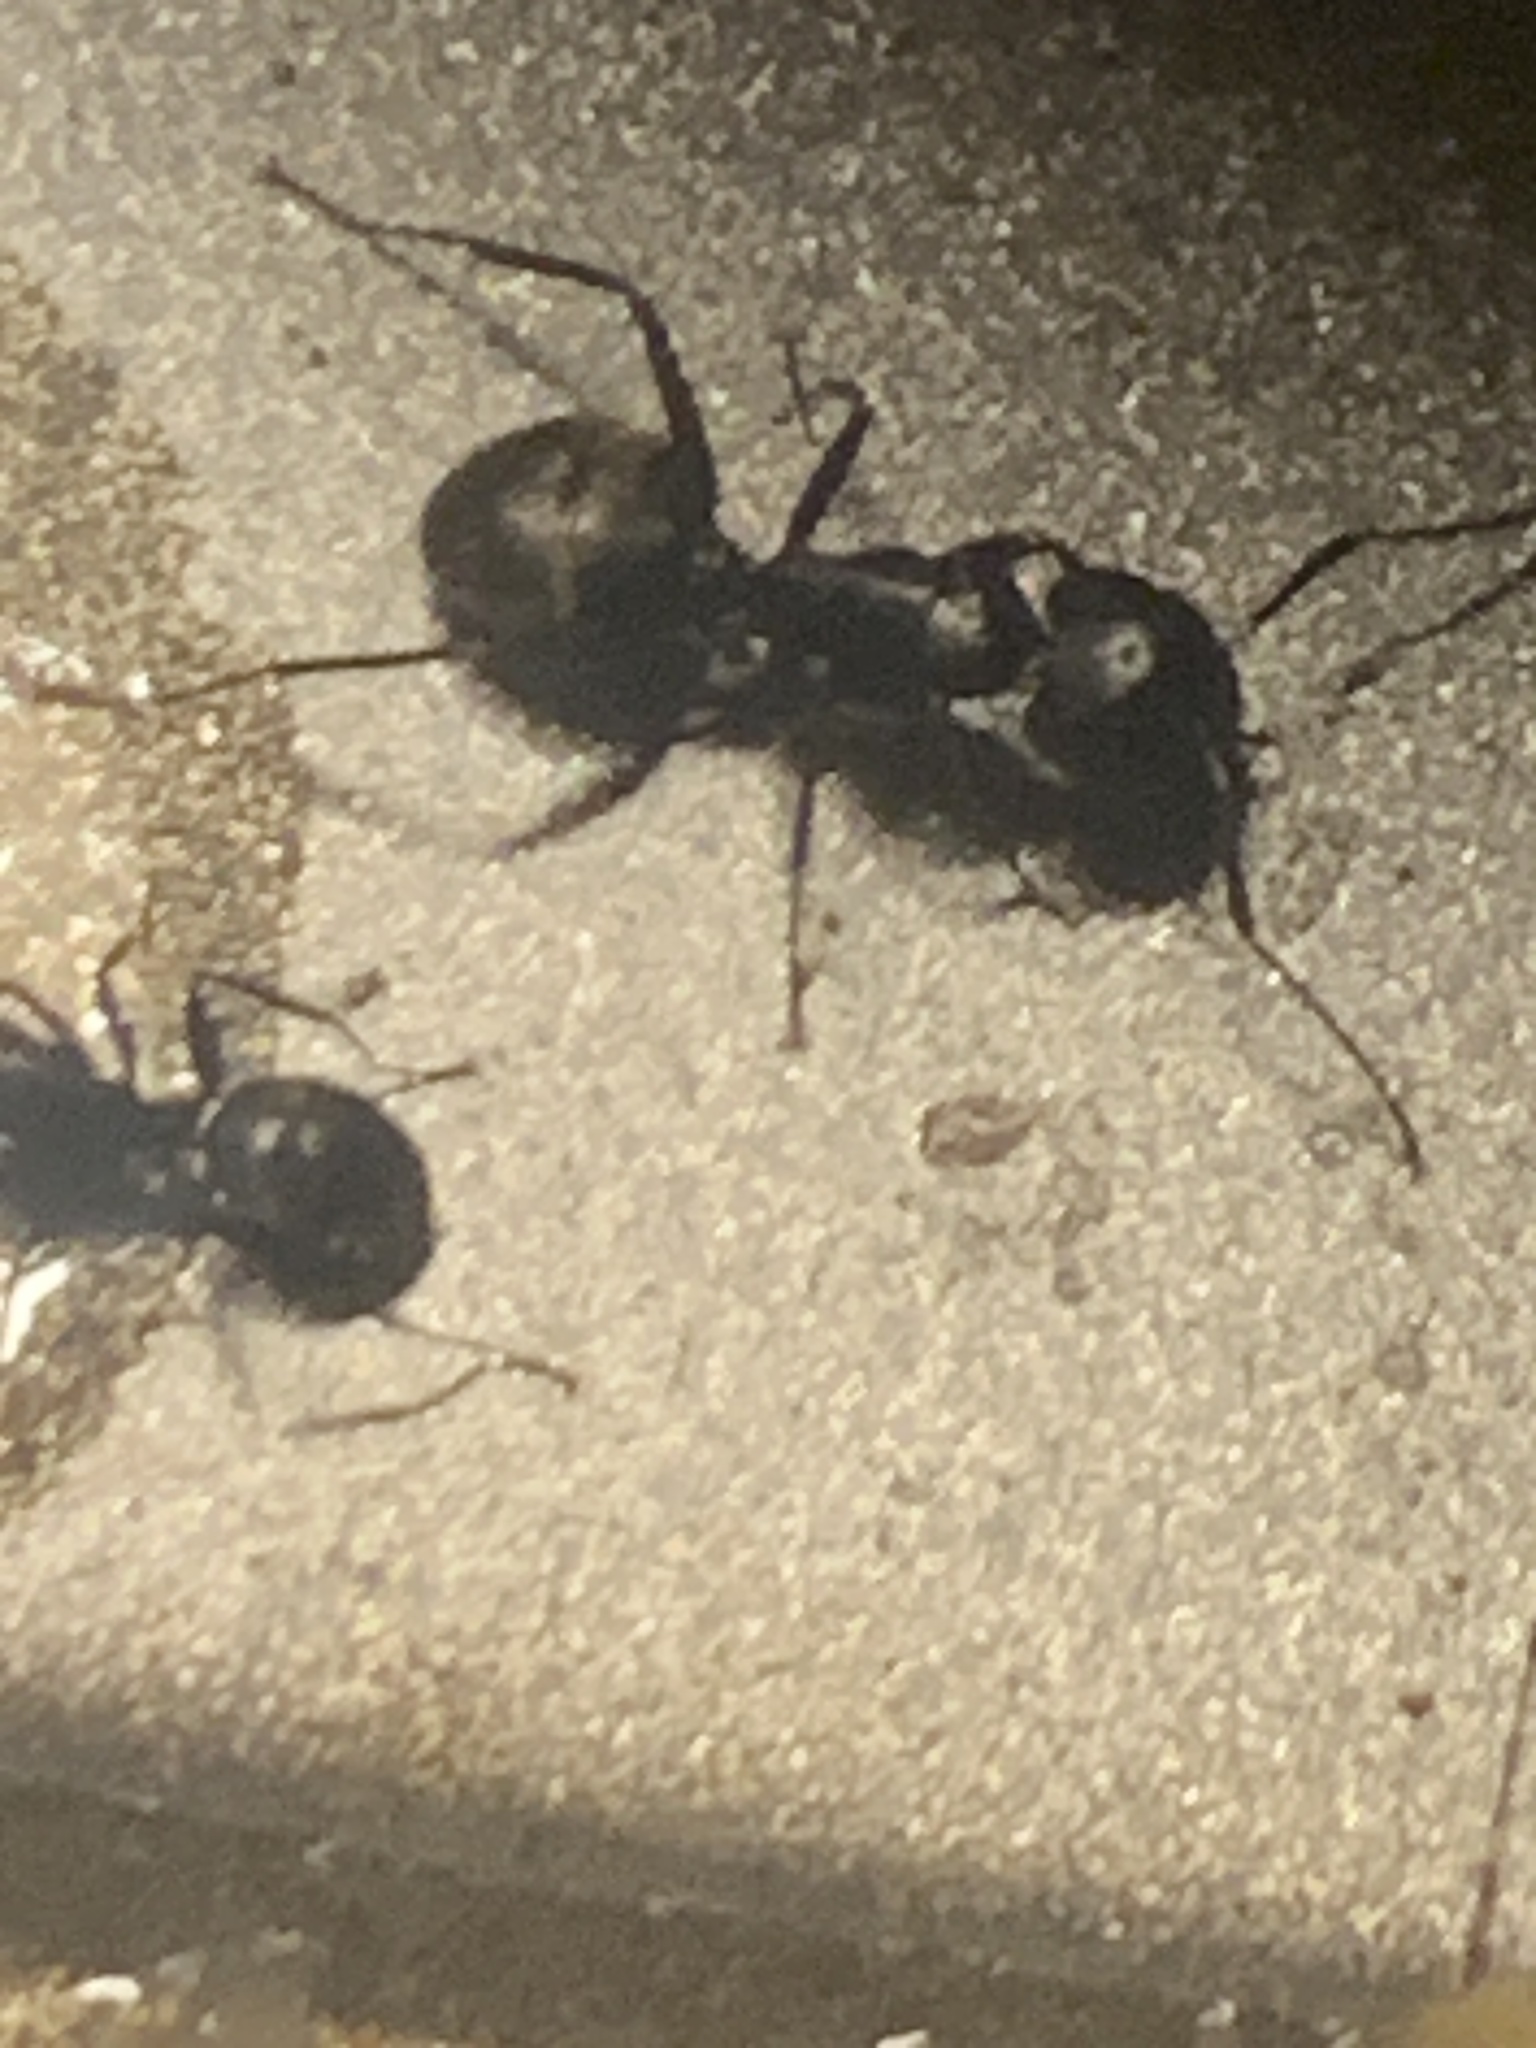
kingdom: Animalia
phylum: Arthropoda
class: Insecta
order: Hymenoptera
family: Formicidae
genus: Camponotus
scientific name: Camponotus pennsylvanicus
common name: Black carpenter ant
